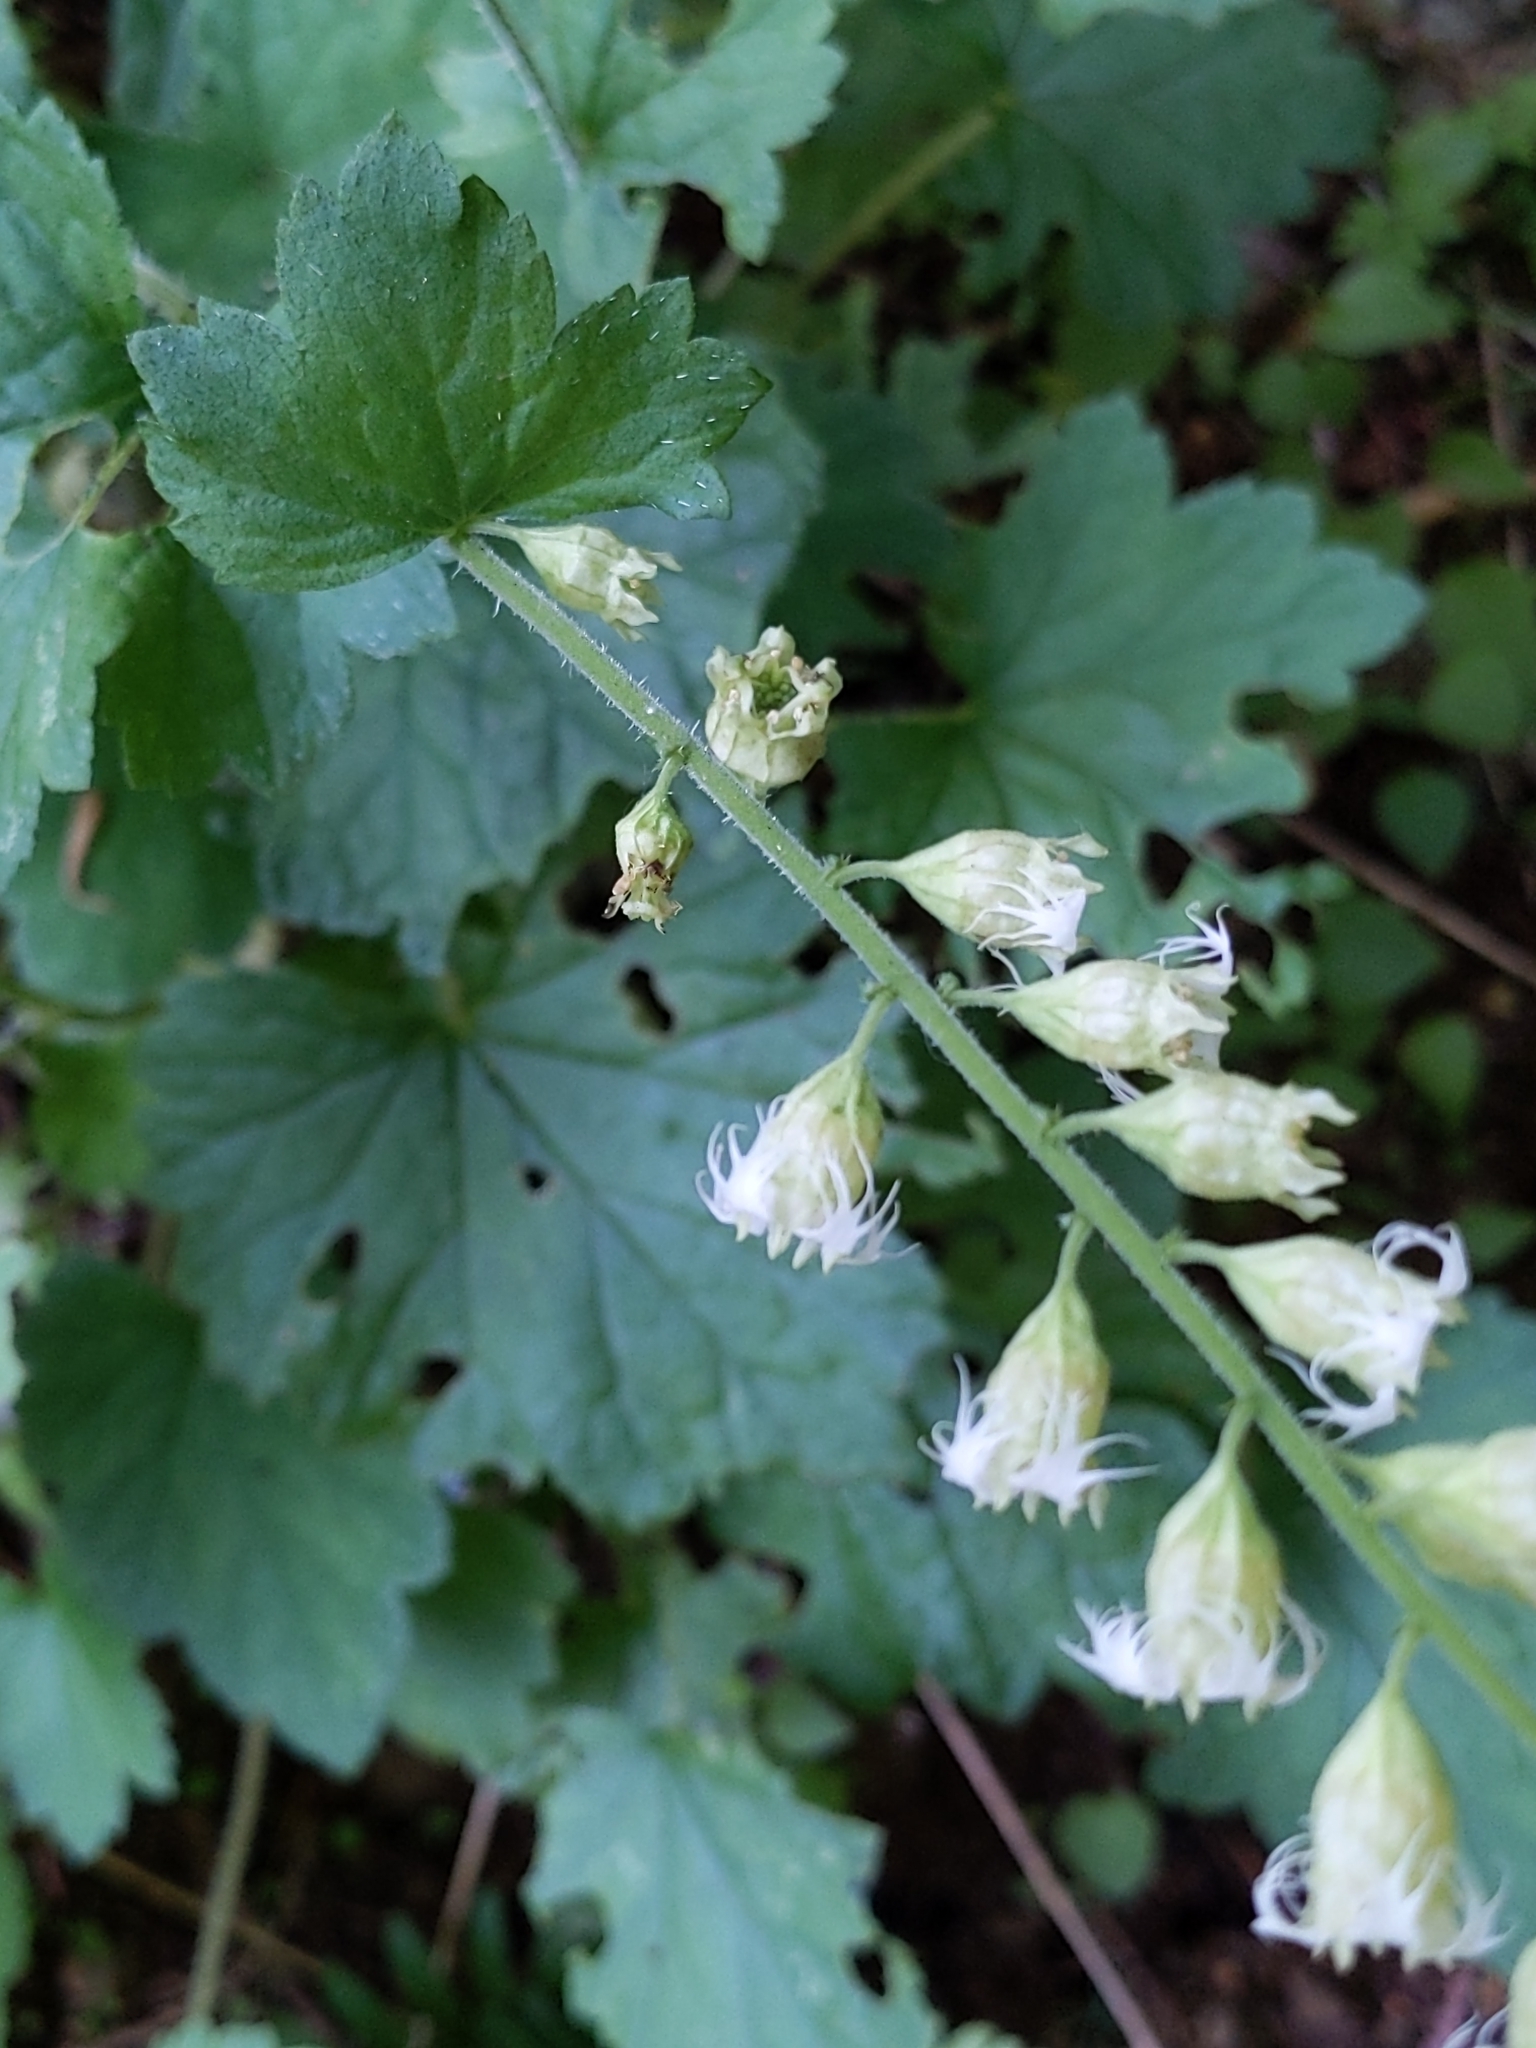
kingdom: Plantae
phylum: Tracheophyta
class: Magnoliopsida
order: Saxifragales
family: Saxifragaceae
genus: Tellima
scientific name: Tellima grandiflora
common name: Fringecups
